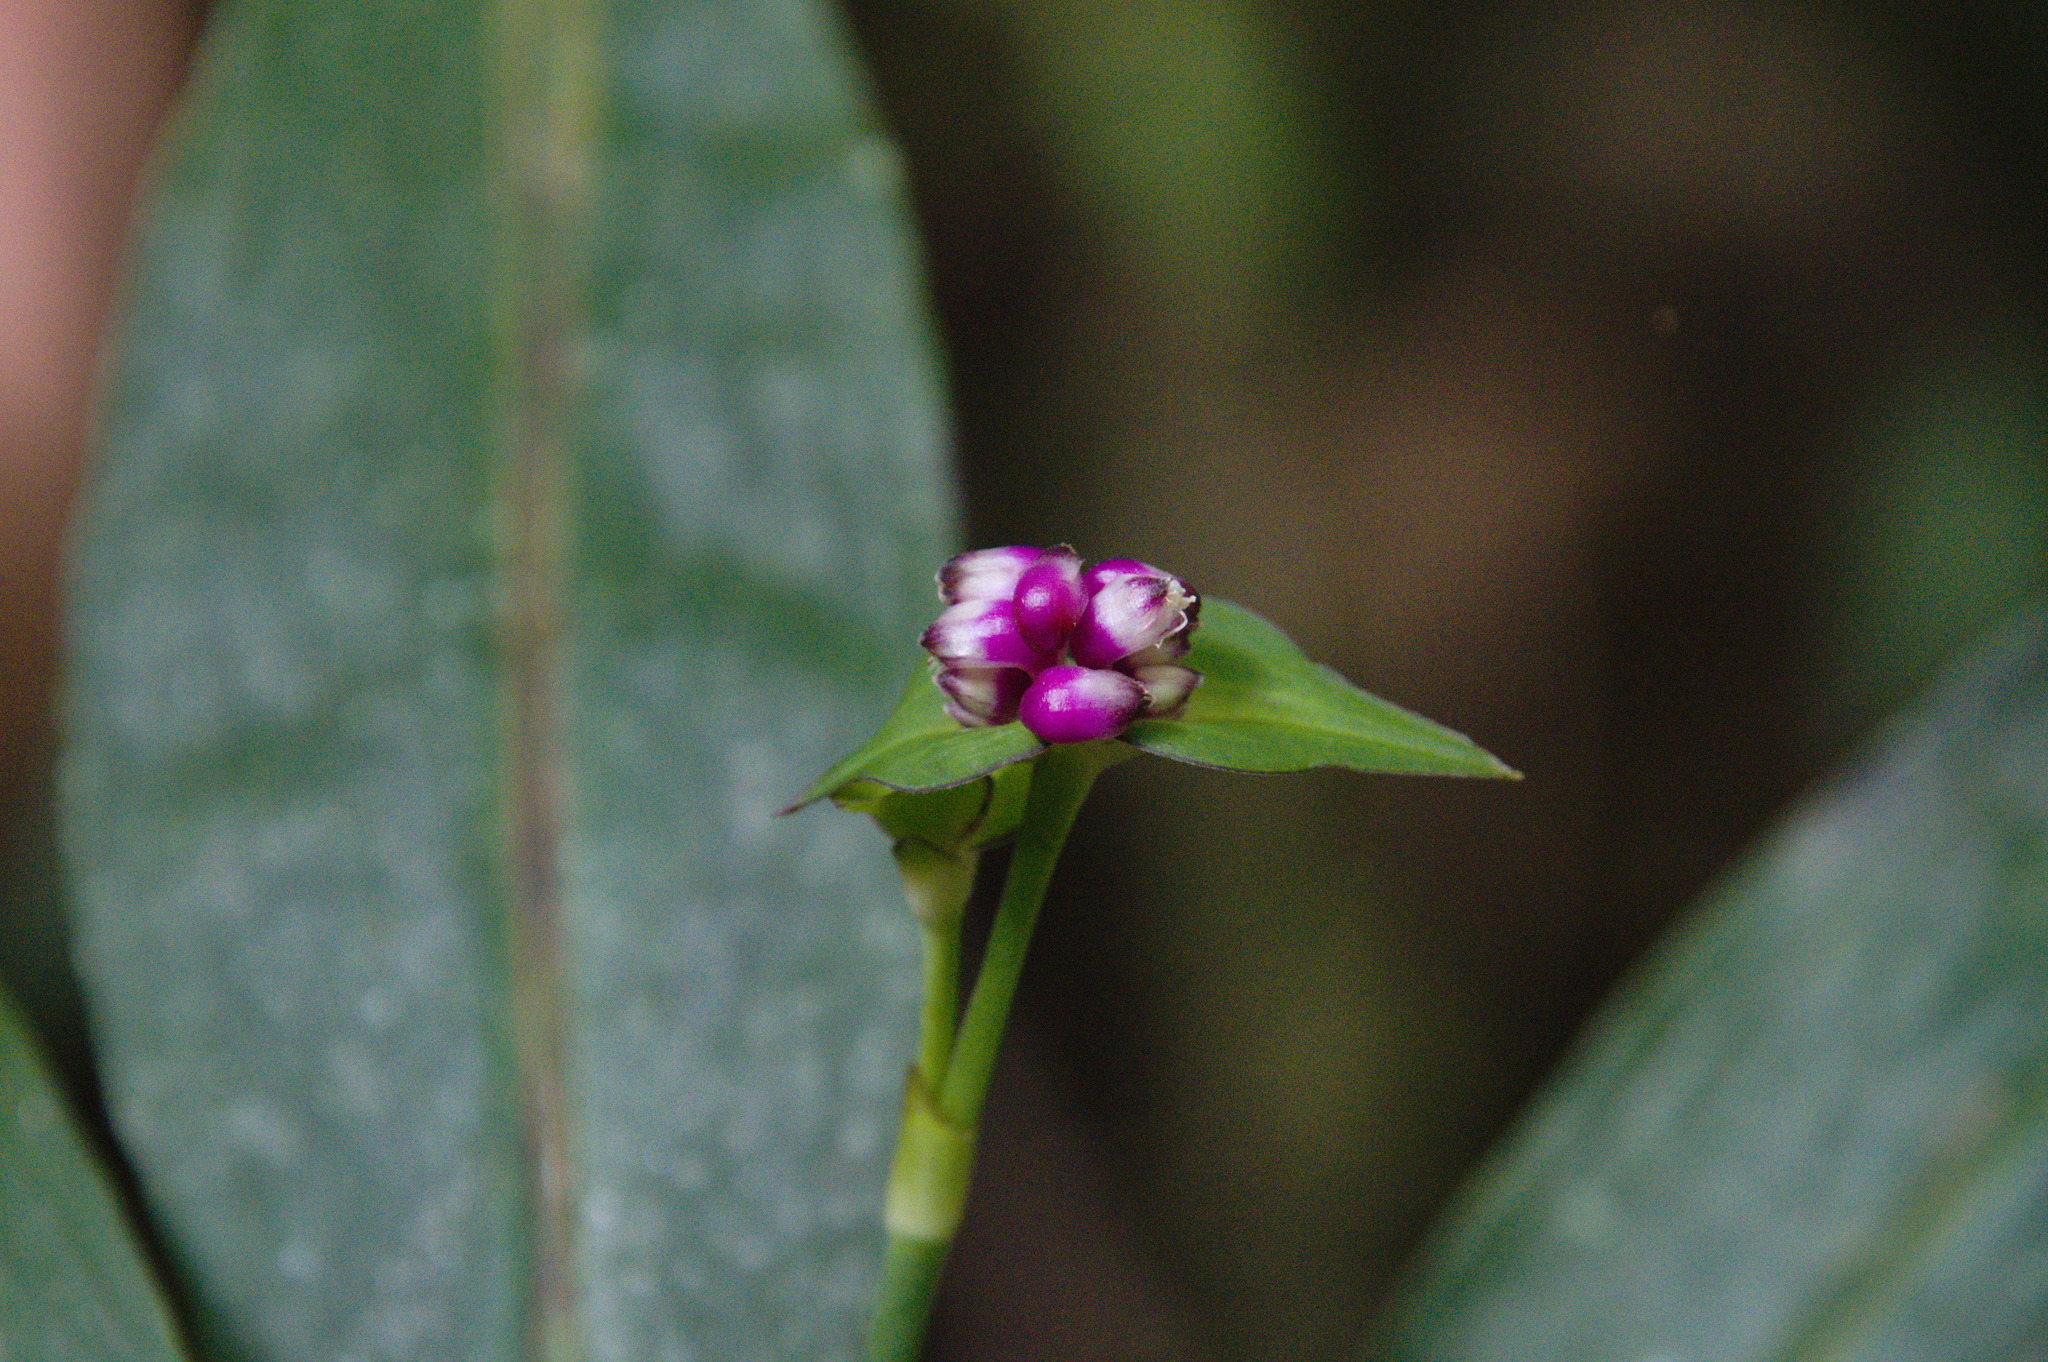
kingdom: Plantae
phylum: Tracheophyta
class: Liliopsida
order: Commelinales
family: Commelinaceae
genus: Tradescantia
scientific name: Tradescantia zanonia
